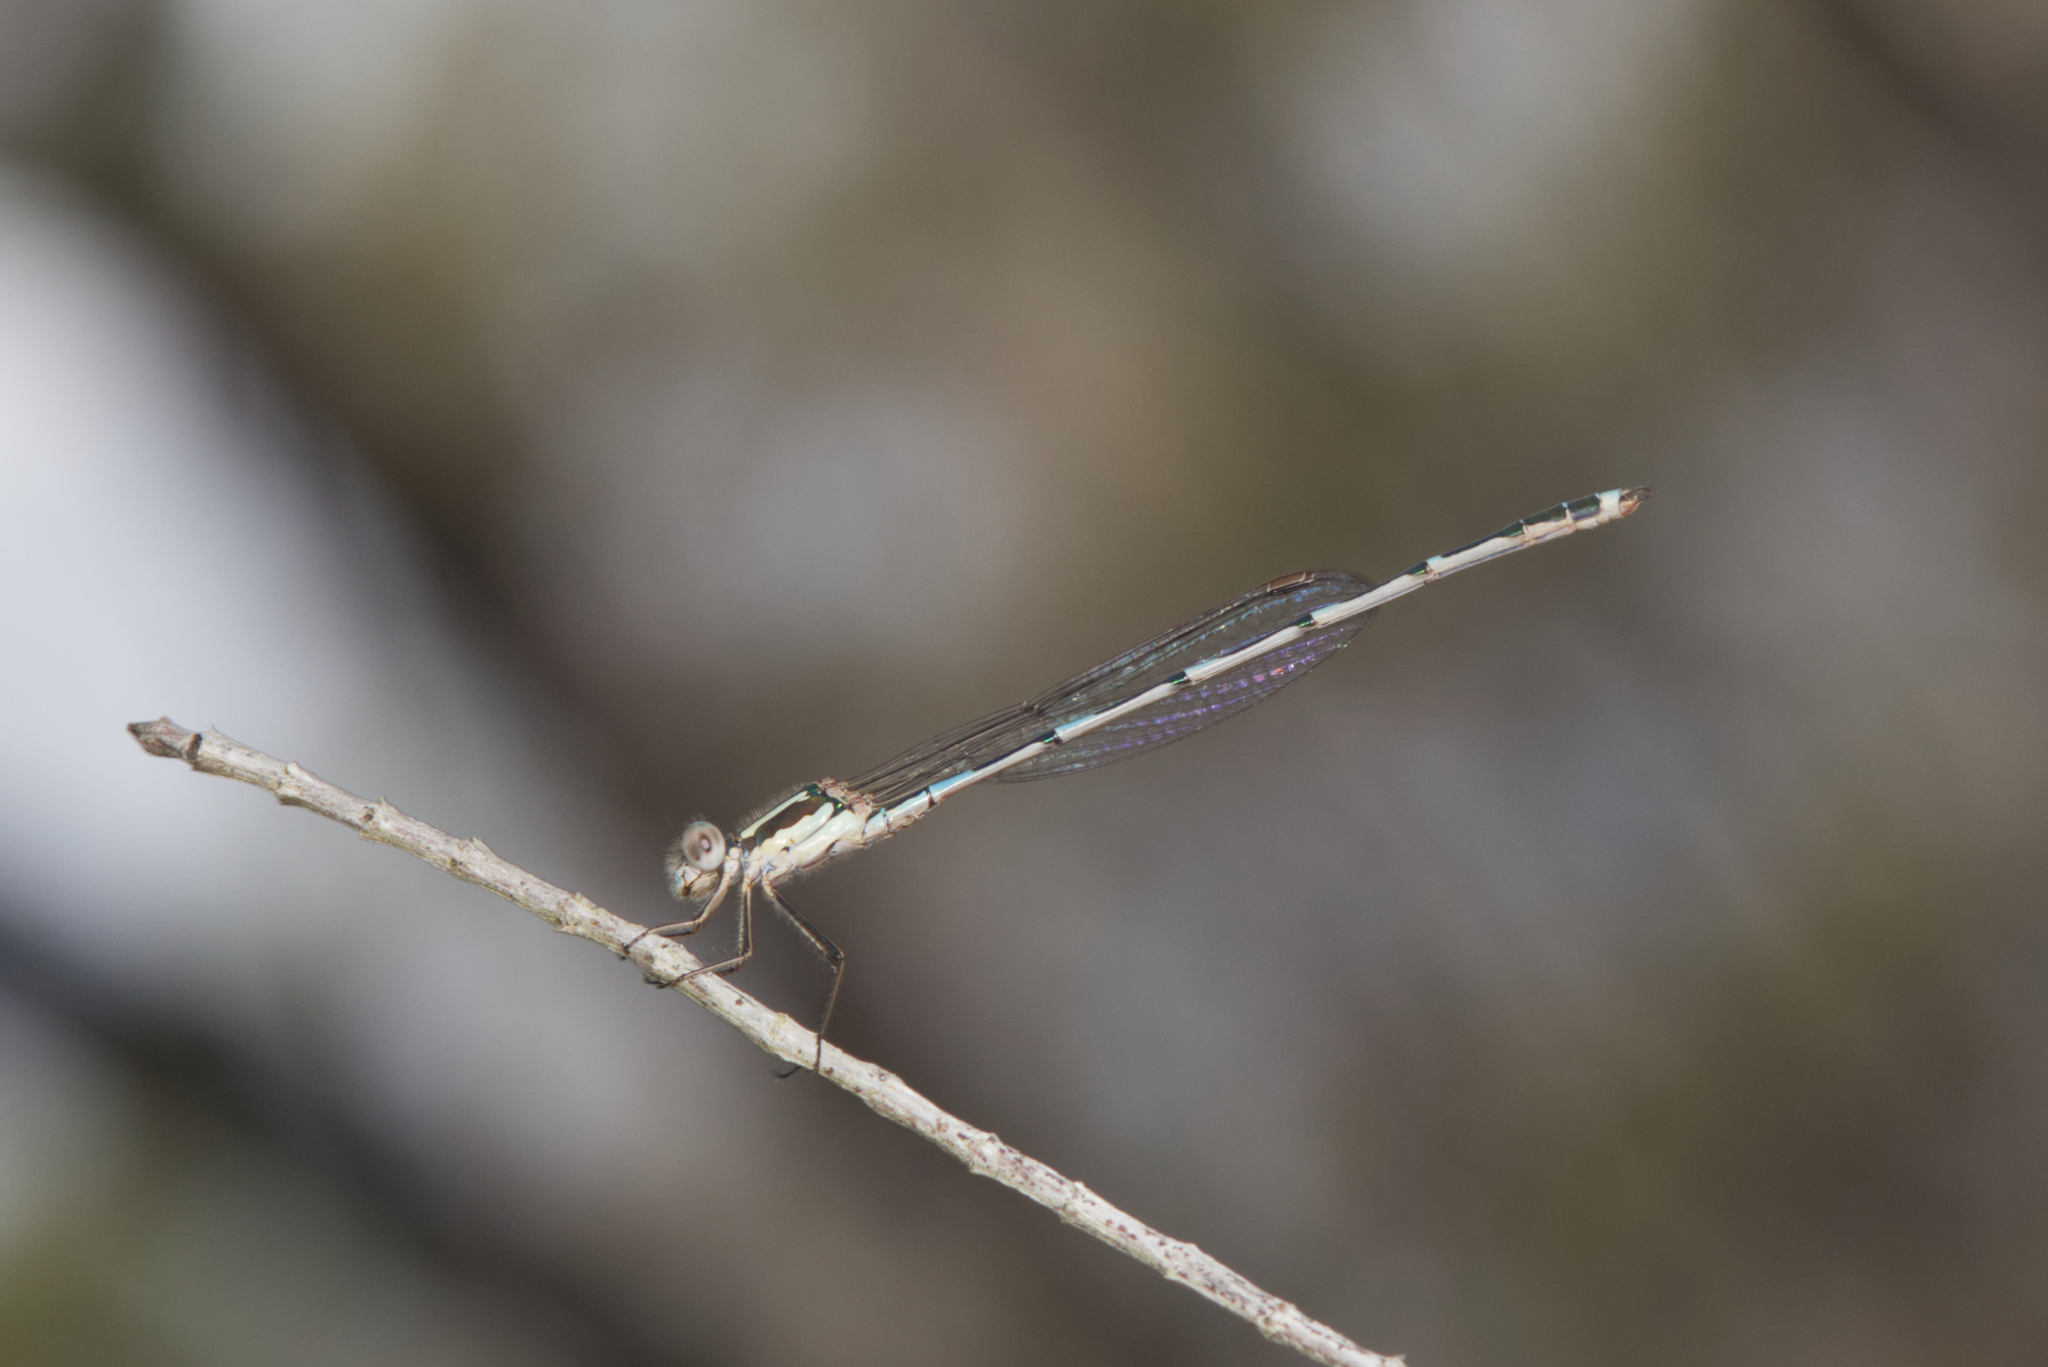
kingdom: Animalia
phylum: Arthropoda
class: Insecta
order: Odonata
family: Lestidae
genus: Austrolestes
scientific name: Austrolestes leda
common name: Wandering ringtail
